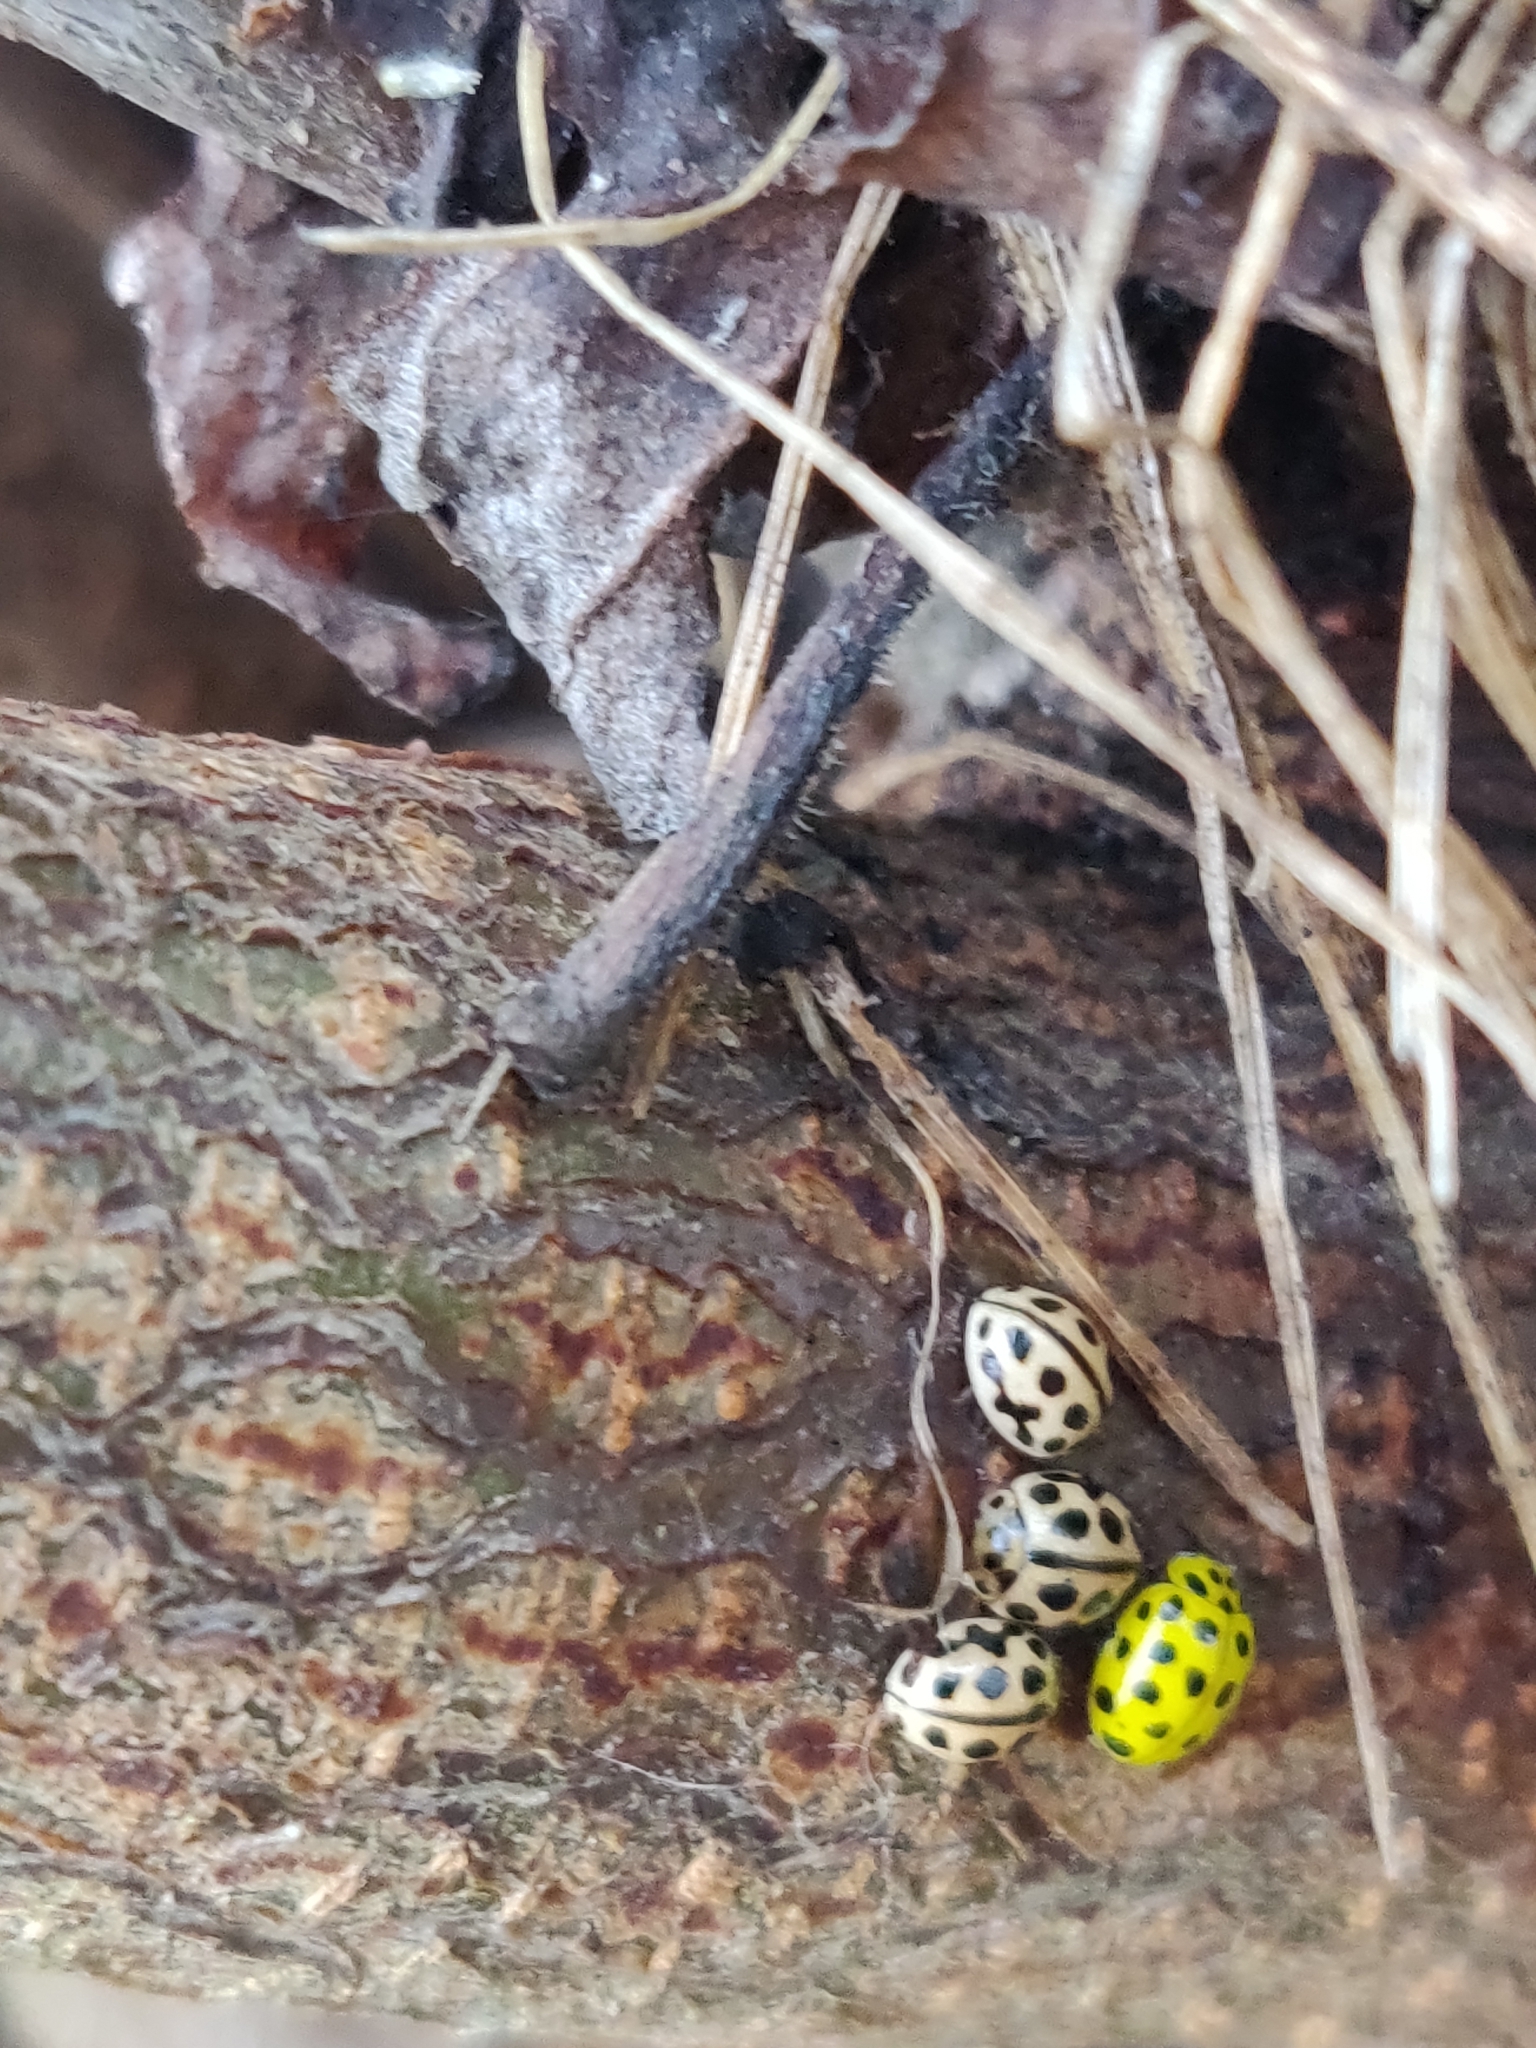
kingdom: Animalia
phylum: Arthropoda
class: Insecta
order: Coleoptera
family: Coccinellidae
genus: Psyllobora
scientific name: Psyllobora vigintiduopunctata
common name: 22-spot ladybird
